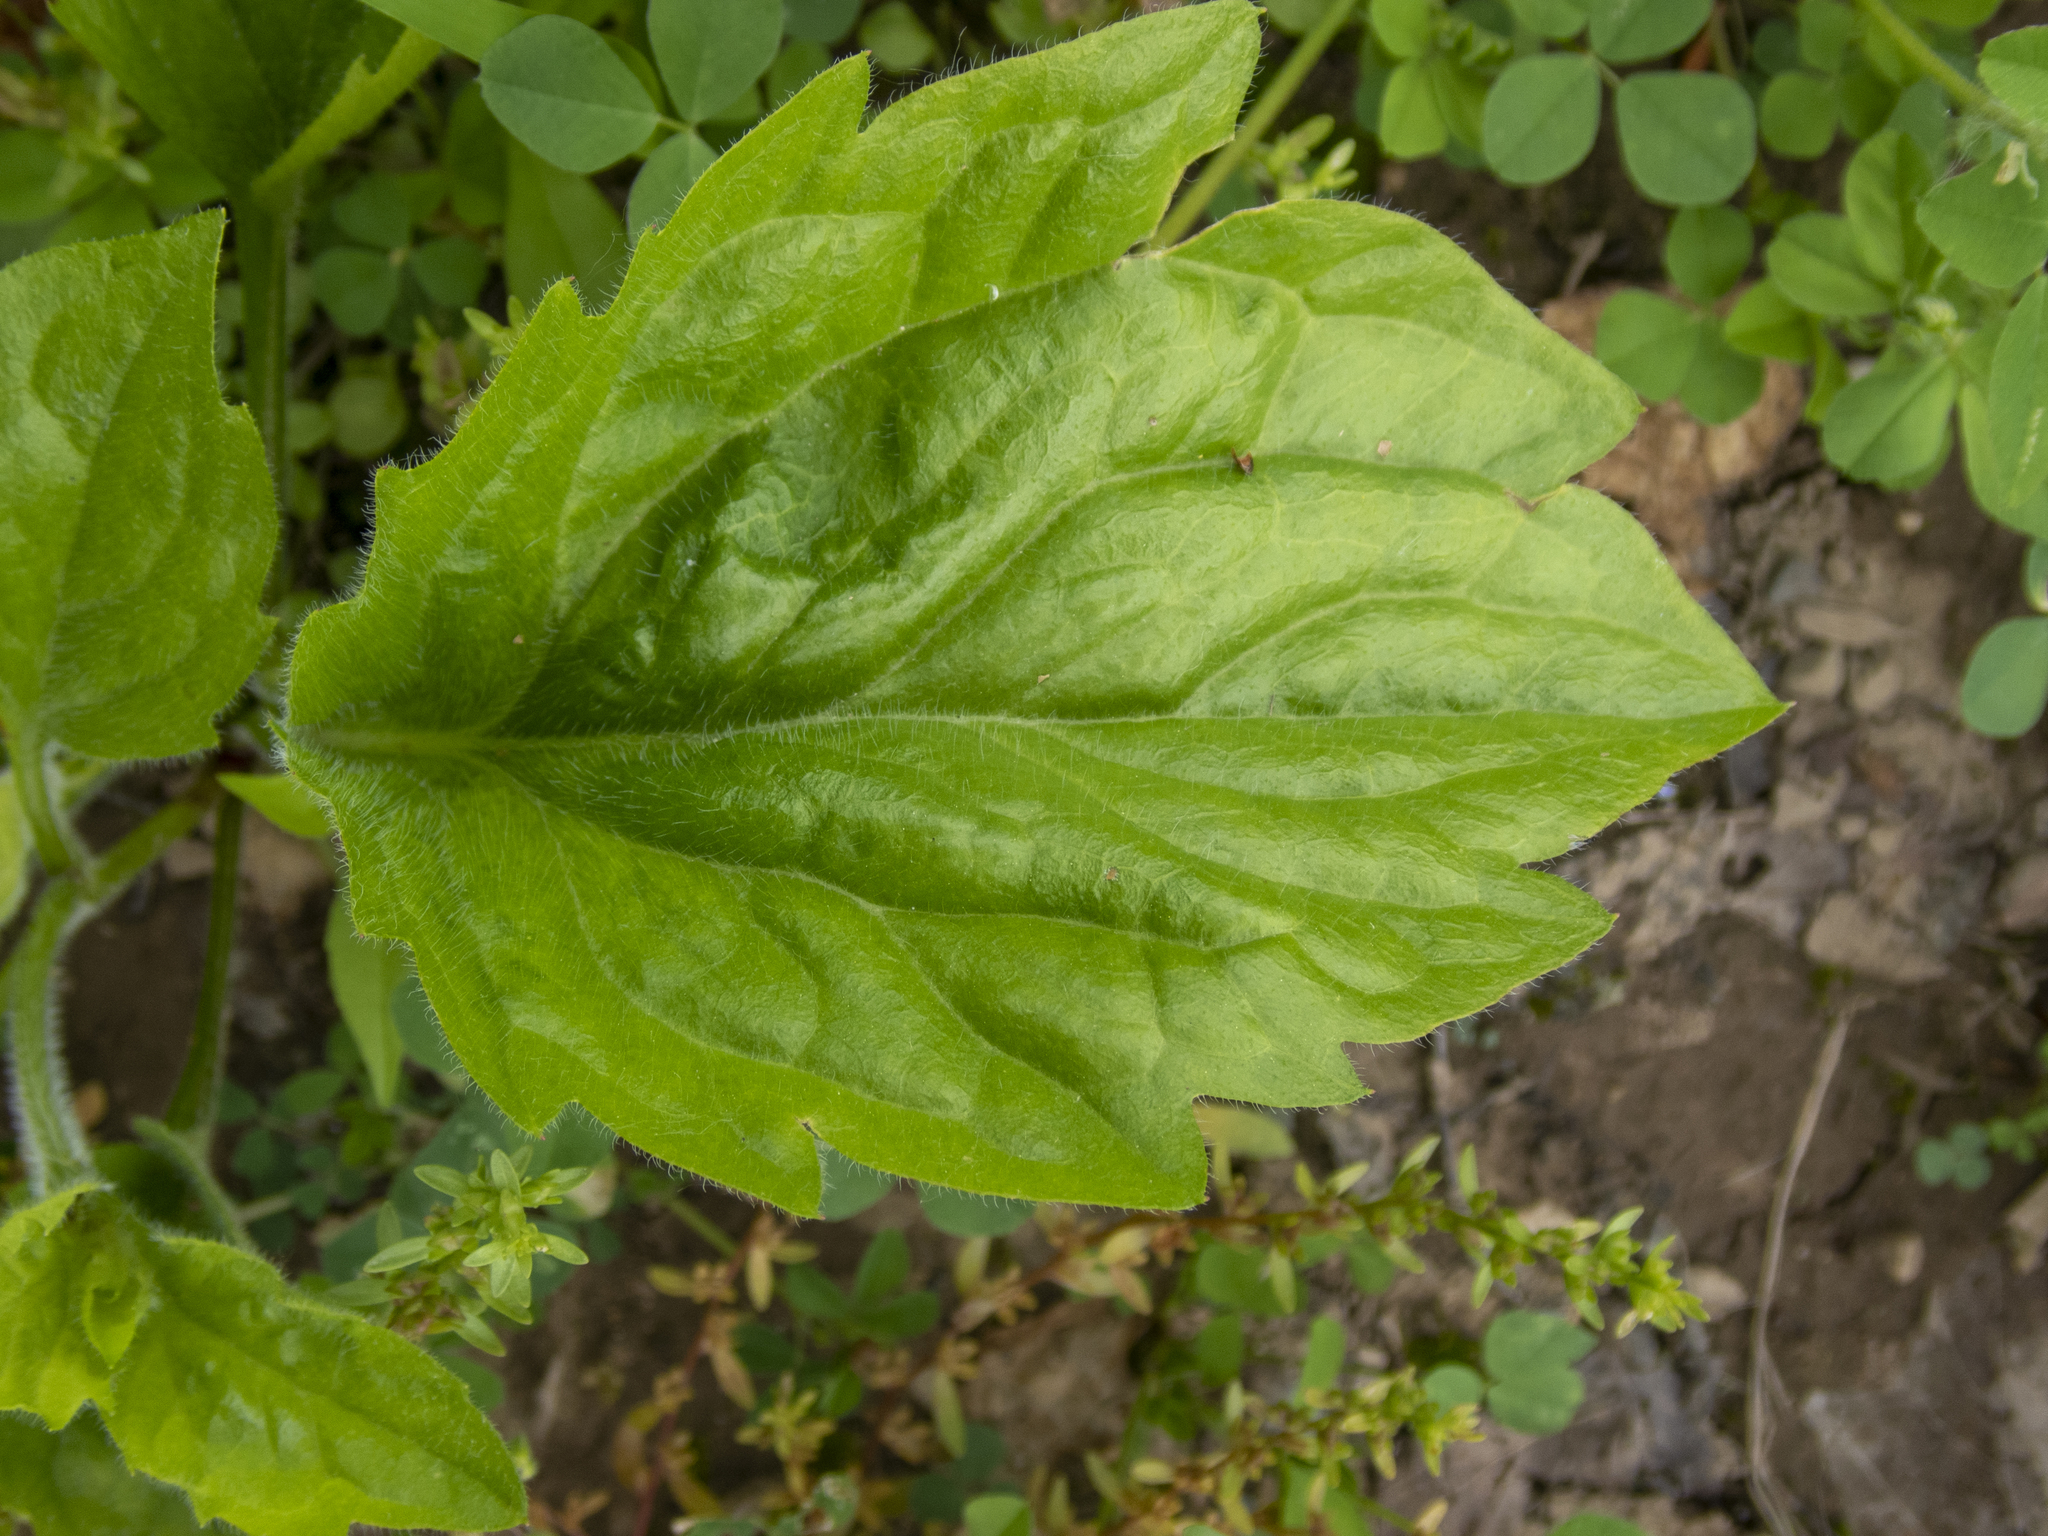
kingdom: Plantae
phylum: Tracheophyta
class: Magnoliopsida
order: Asterales
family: Asteraceae
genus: Erigeron
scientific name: Erigeron annuus
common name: Tall fleabane
